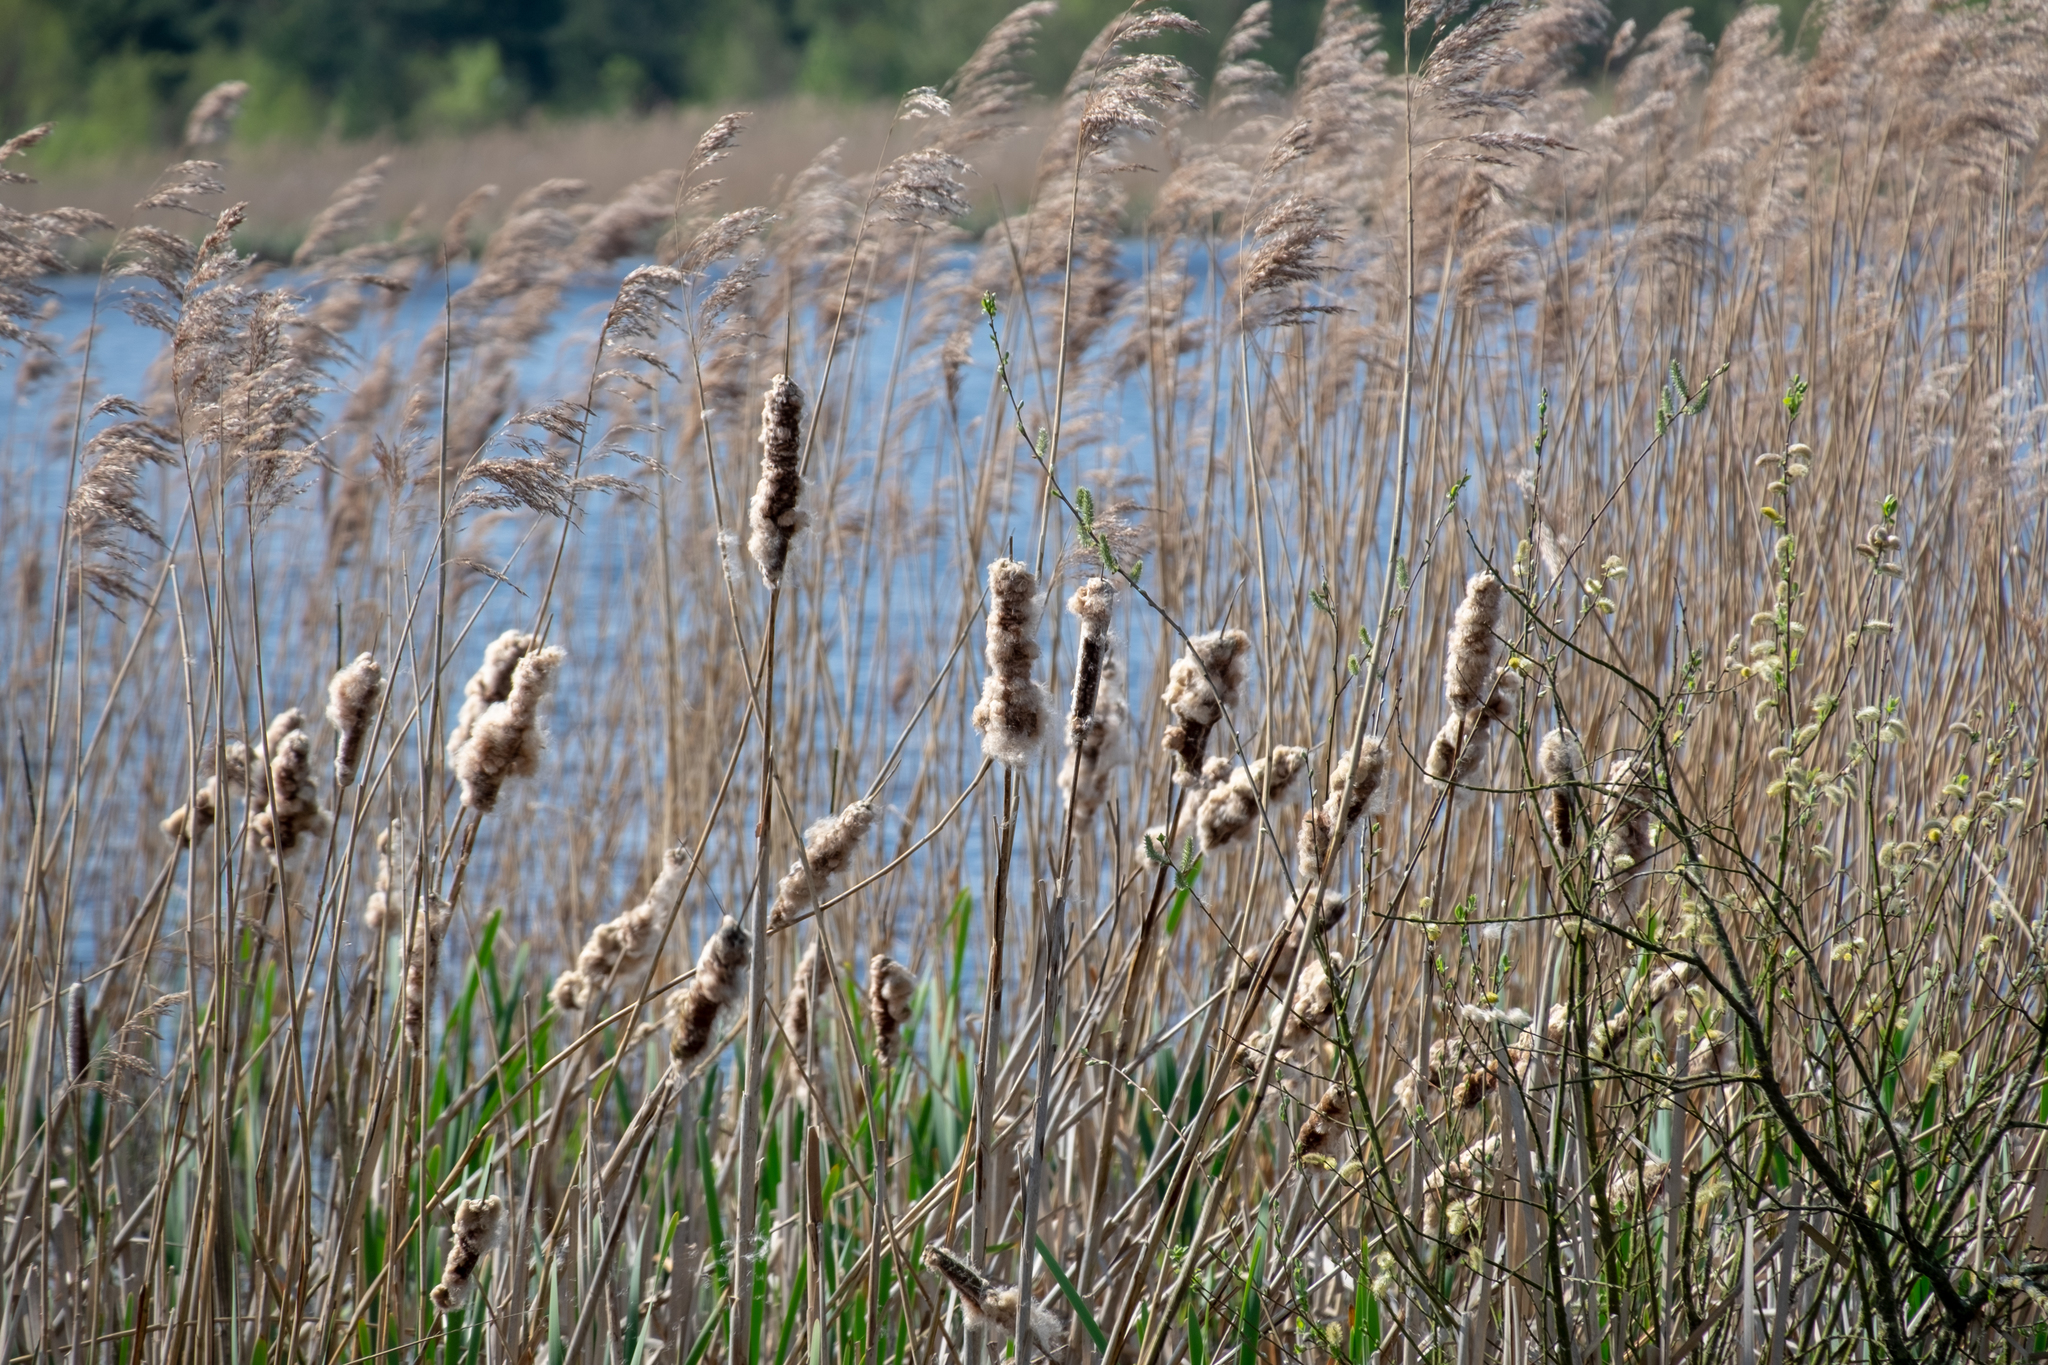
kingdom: Plantae
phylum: Tracheophyta
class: Liliopsida
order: Poales
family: Typhaceae
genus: Typha
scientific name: Typha latifolia
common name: Broadleaf cattail
